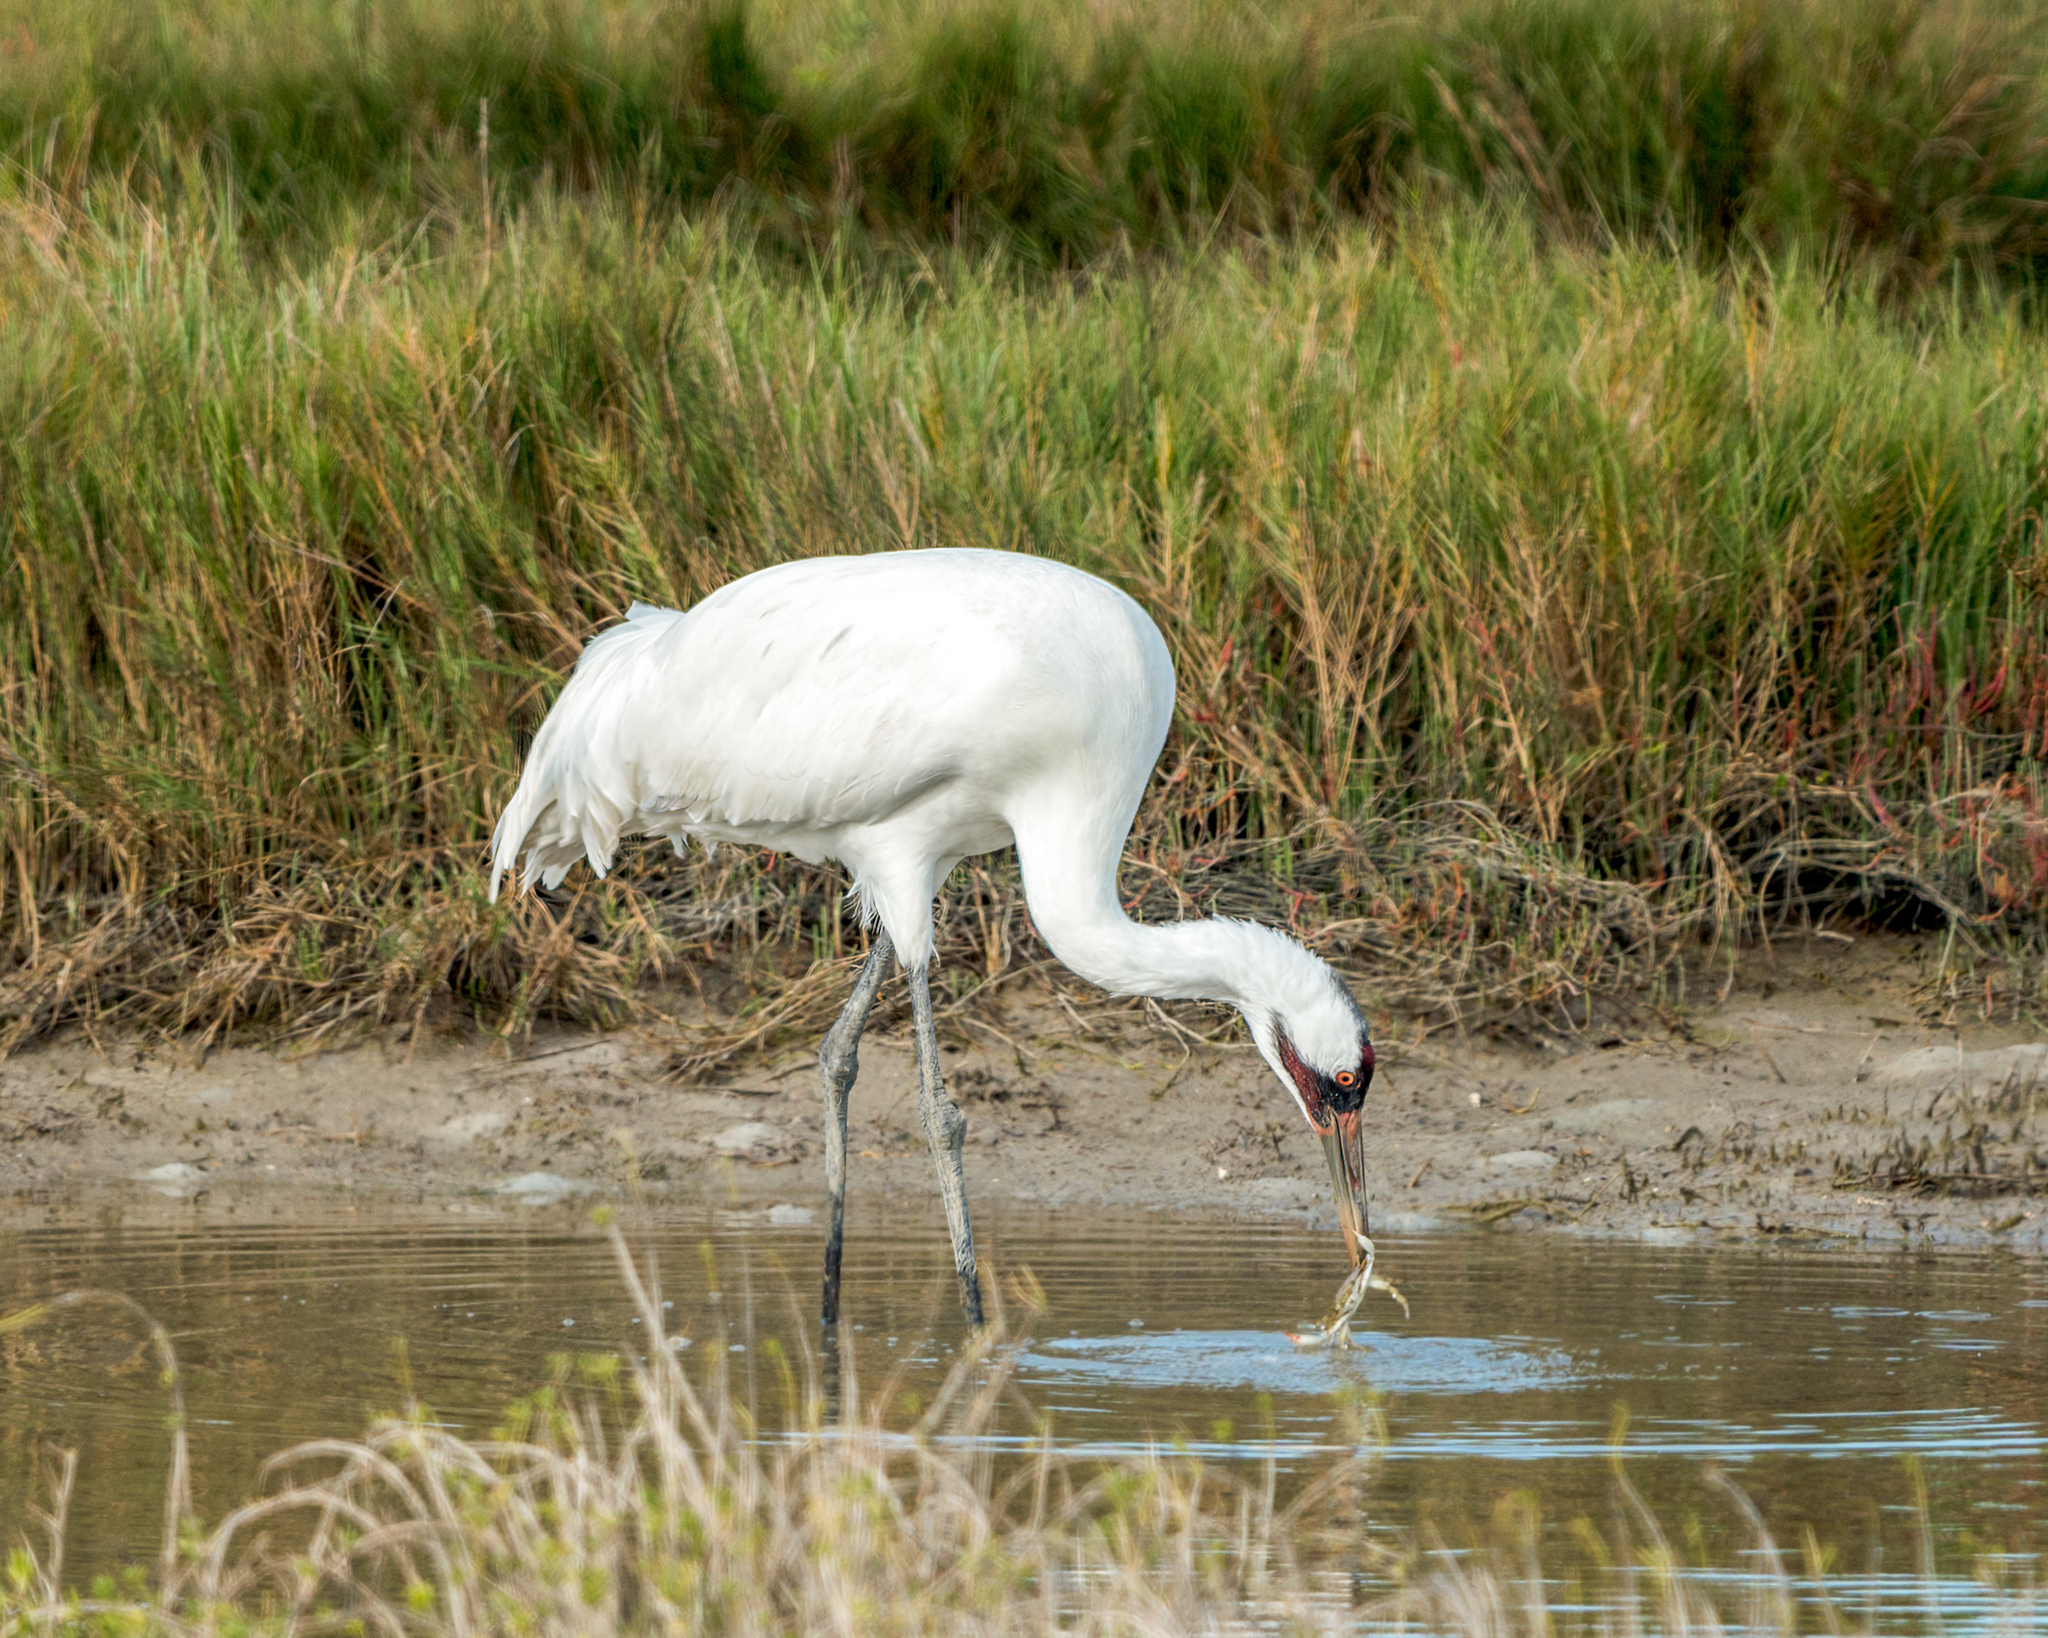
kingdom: Animalia
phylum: Chordata
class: Aves
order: Gruiformes
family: Gruidae
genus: Grus
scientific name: Grus americana
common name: Whooping crane
